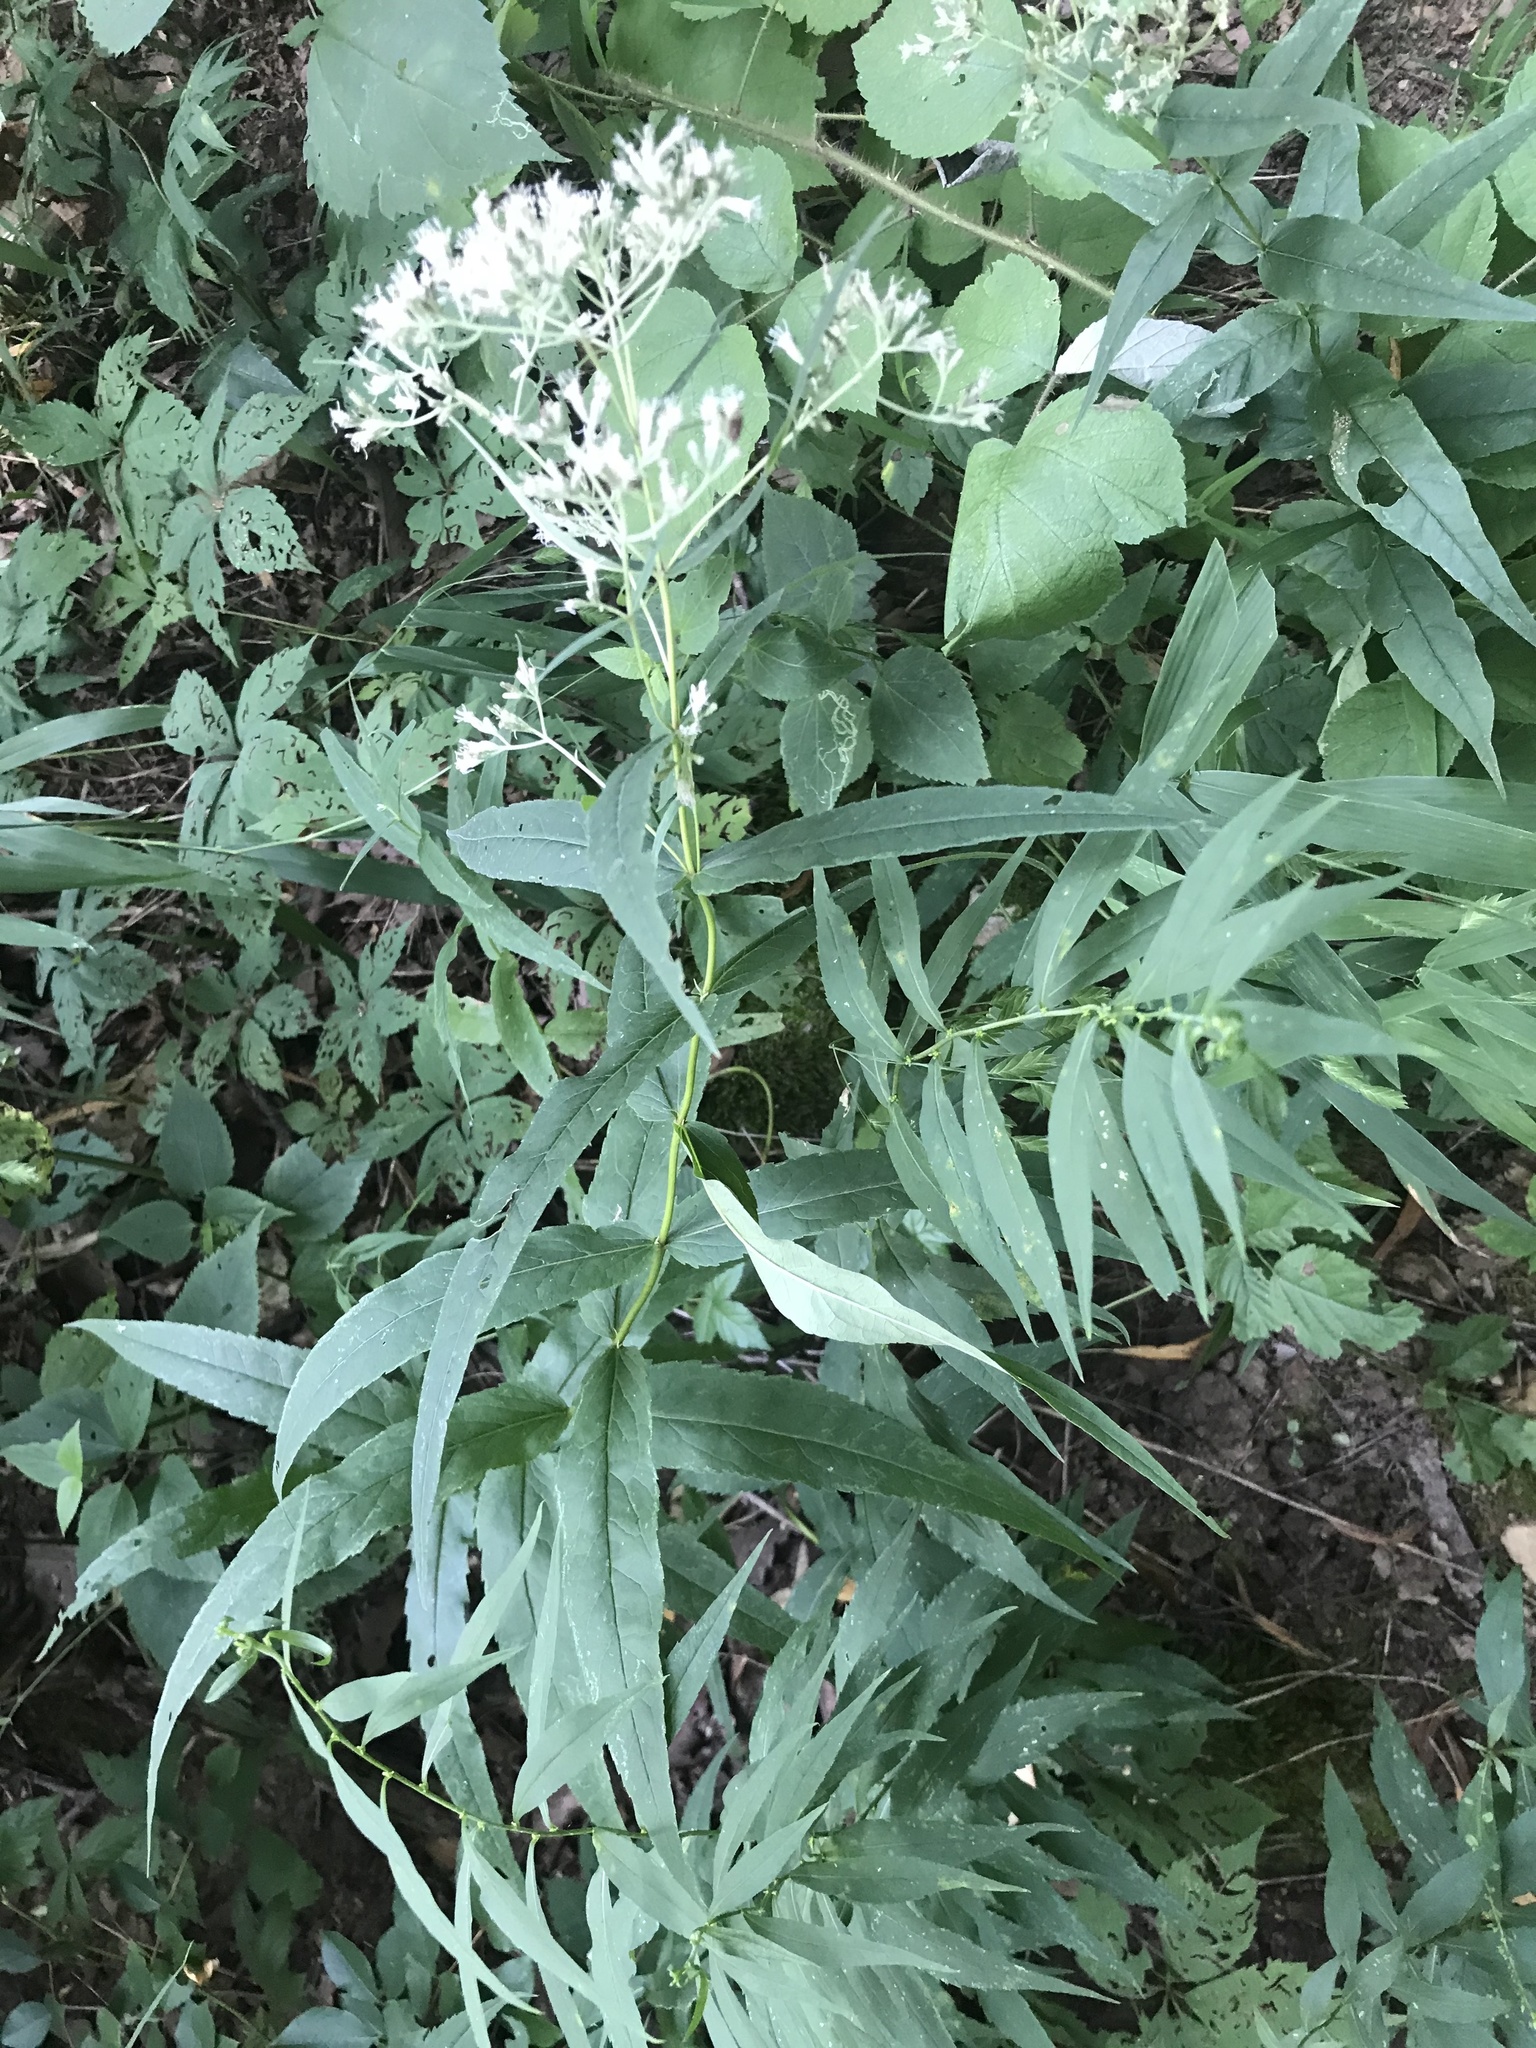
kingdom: Plantae
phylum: Tracheophyta
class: Magnoliopsida
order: Asterales
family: Asteraceae
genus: Eupatorium
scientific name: Eupatorium sessilifolium
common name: Upland boneset
